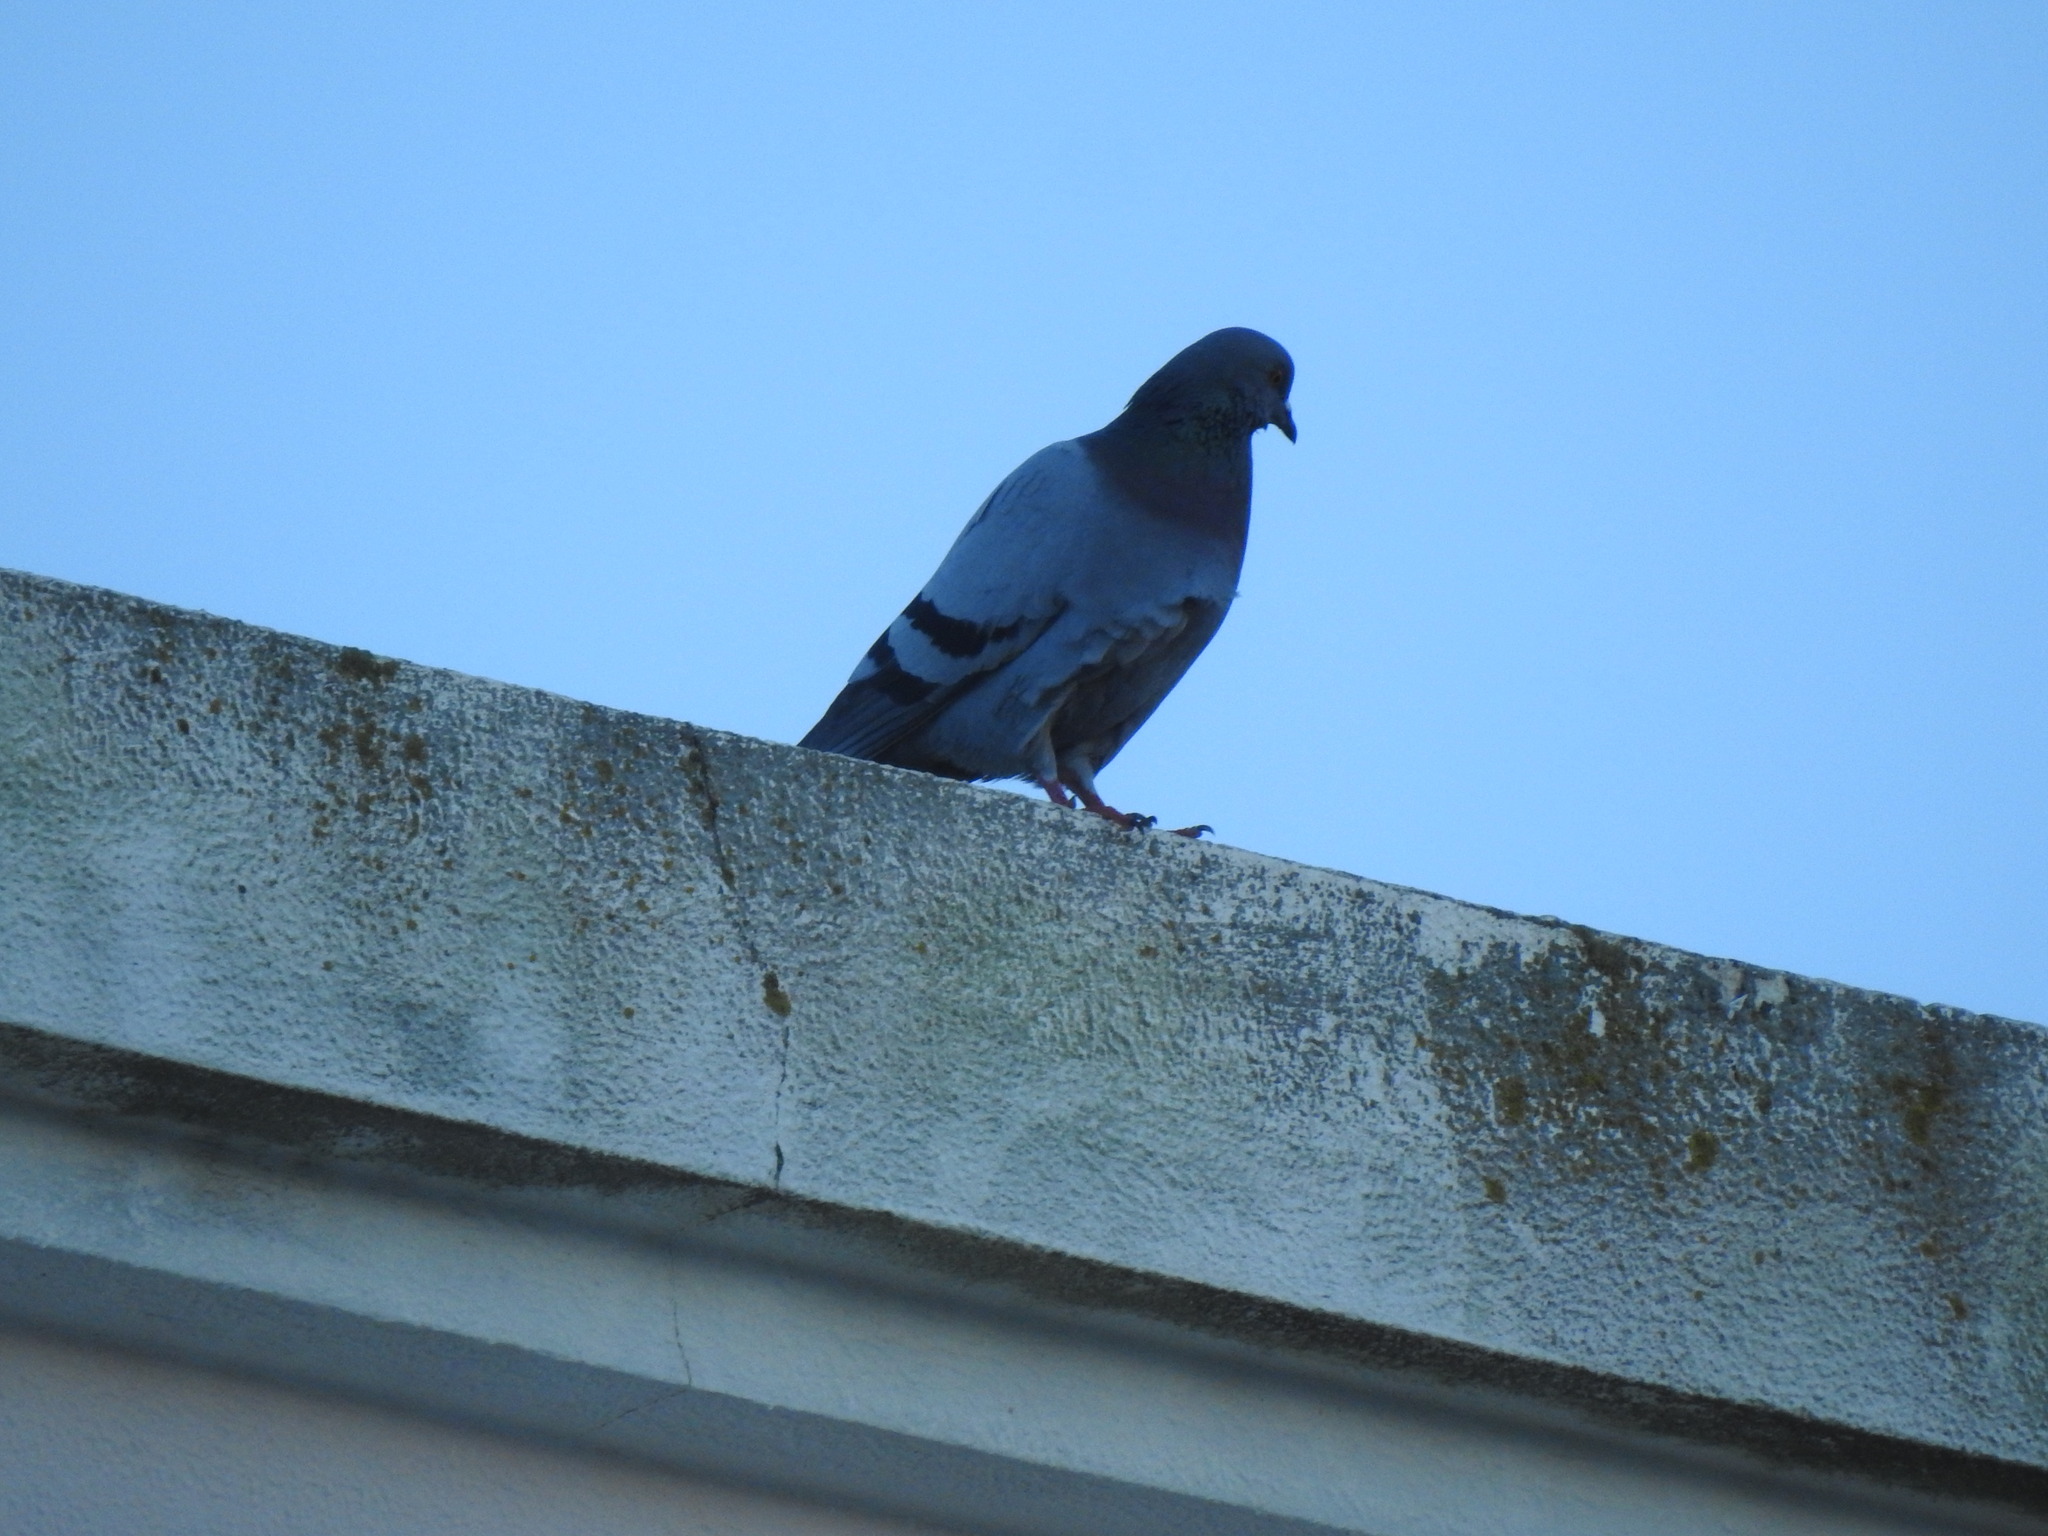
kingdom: Animalia
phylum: Chordata
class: Aves
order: Columbiformes
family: Columbidae
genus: Columba
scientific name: Columba livia
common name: Rock pigeon
